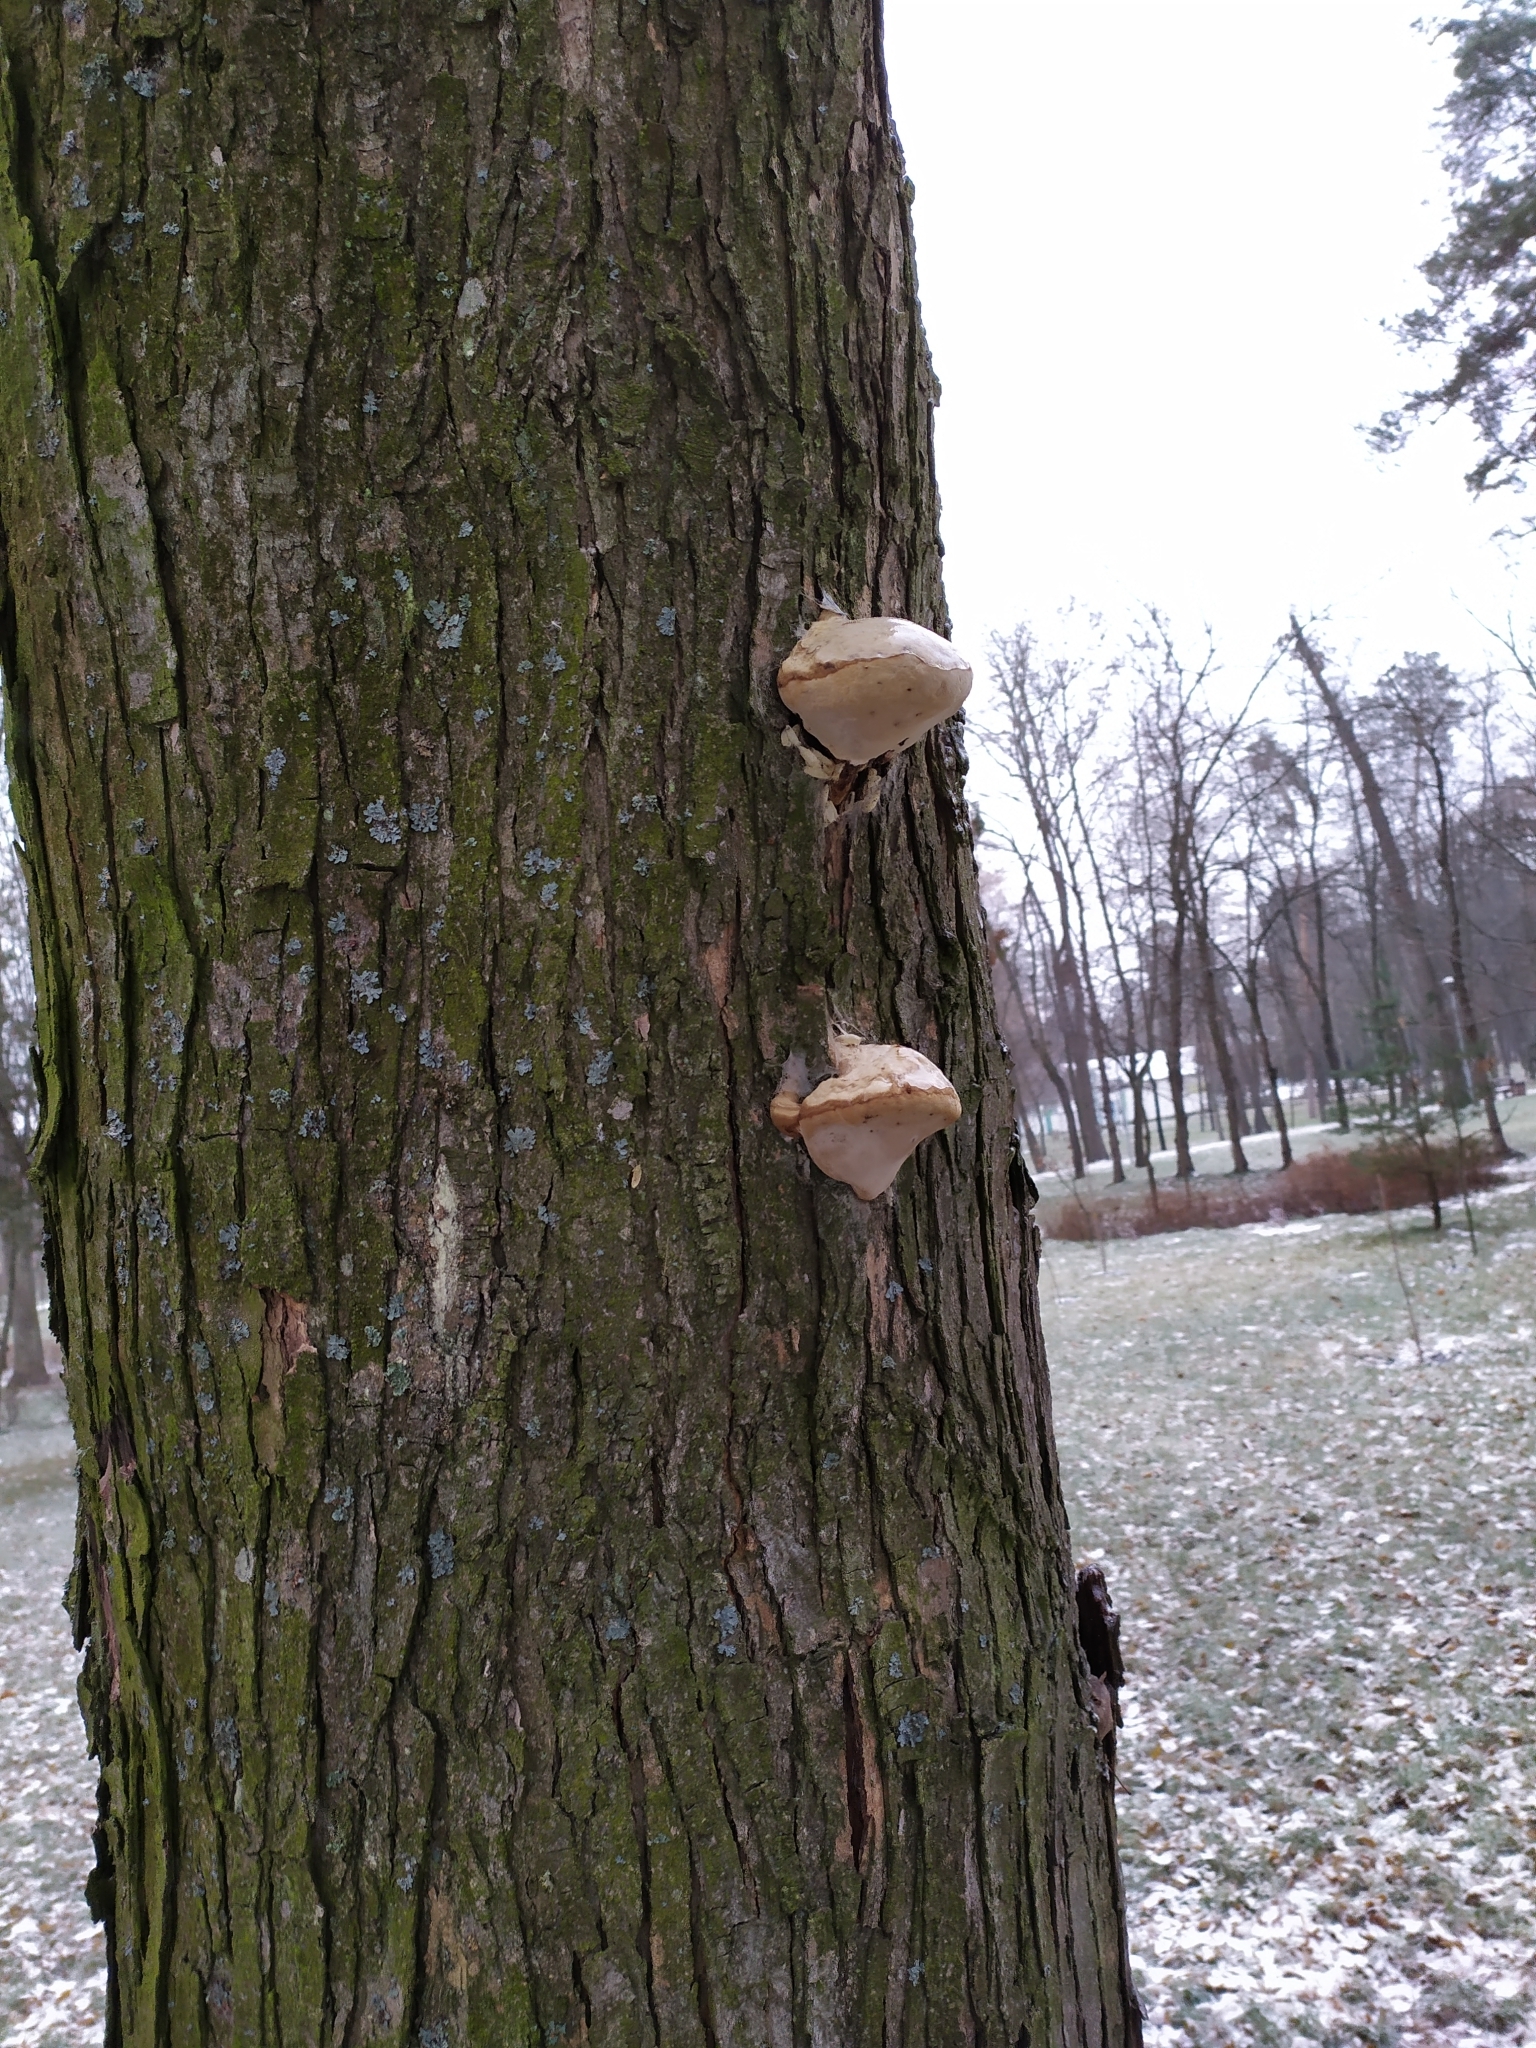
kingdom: Fungi
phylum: Basidiomycota
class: Agaricomycetes
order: Polyporales
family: Polyporaceae
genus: Fomes
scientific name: Fomes fomentarius
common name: Hoof fungus
